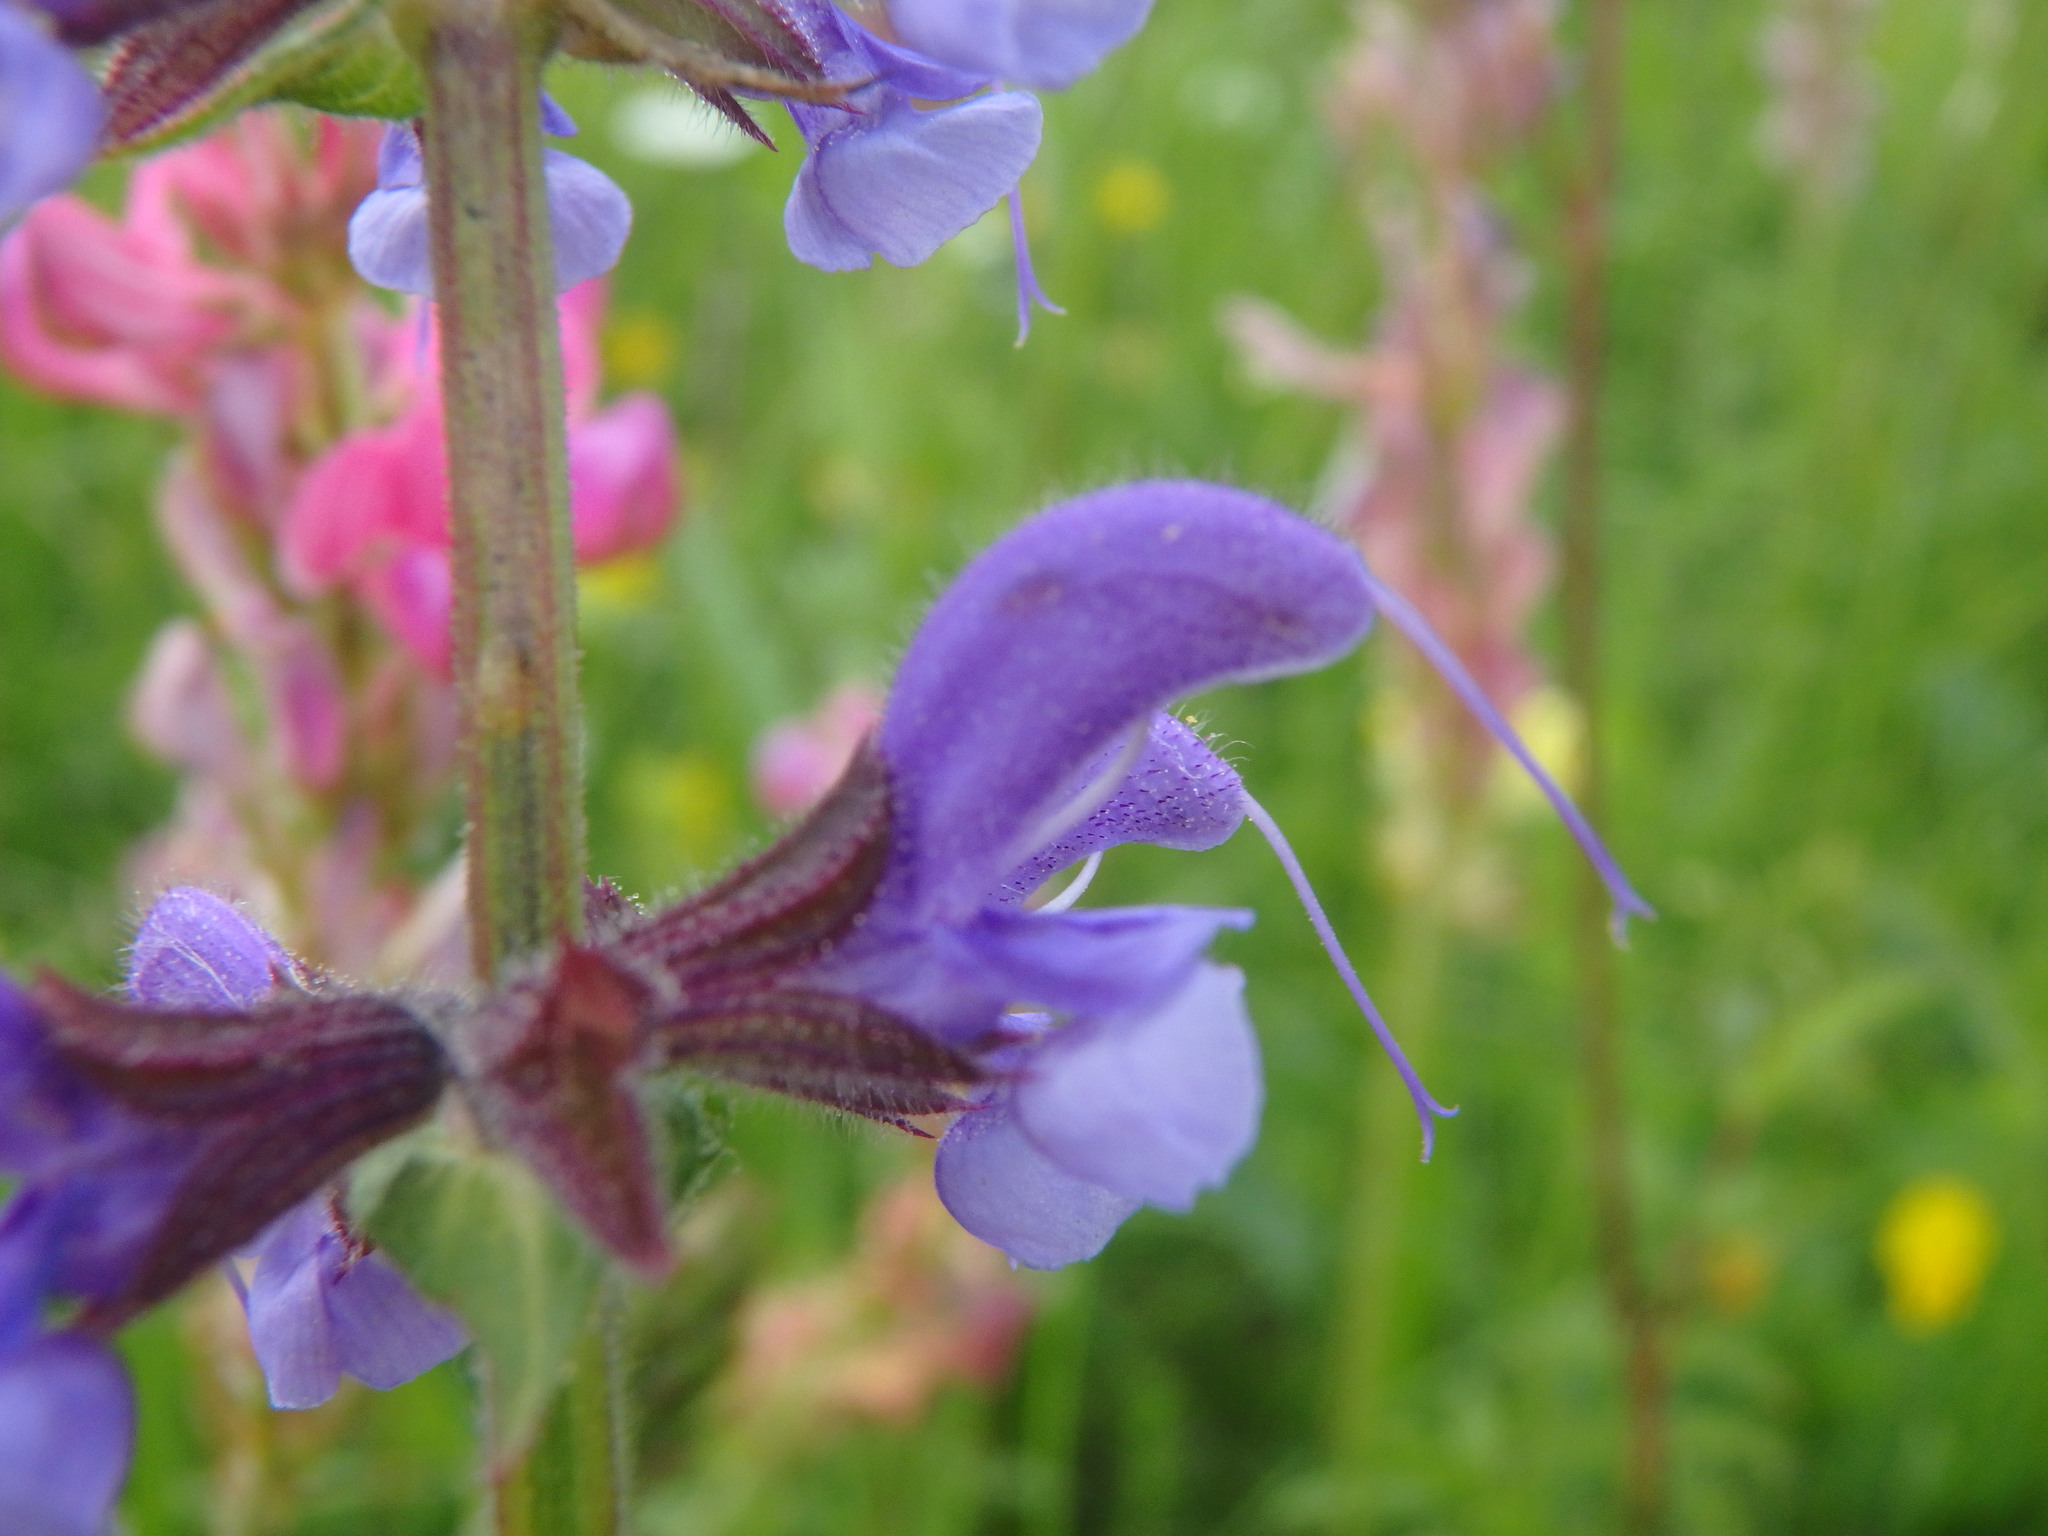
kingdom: Plantae
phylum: Tracheophyta
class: Magnoliopsida
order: Lamiales
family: Lamiaceae
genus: Salvia
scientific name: Salvia pratensis
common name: Meadow sage
